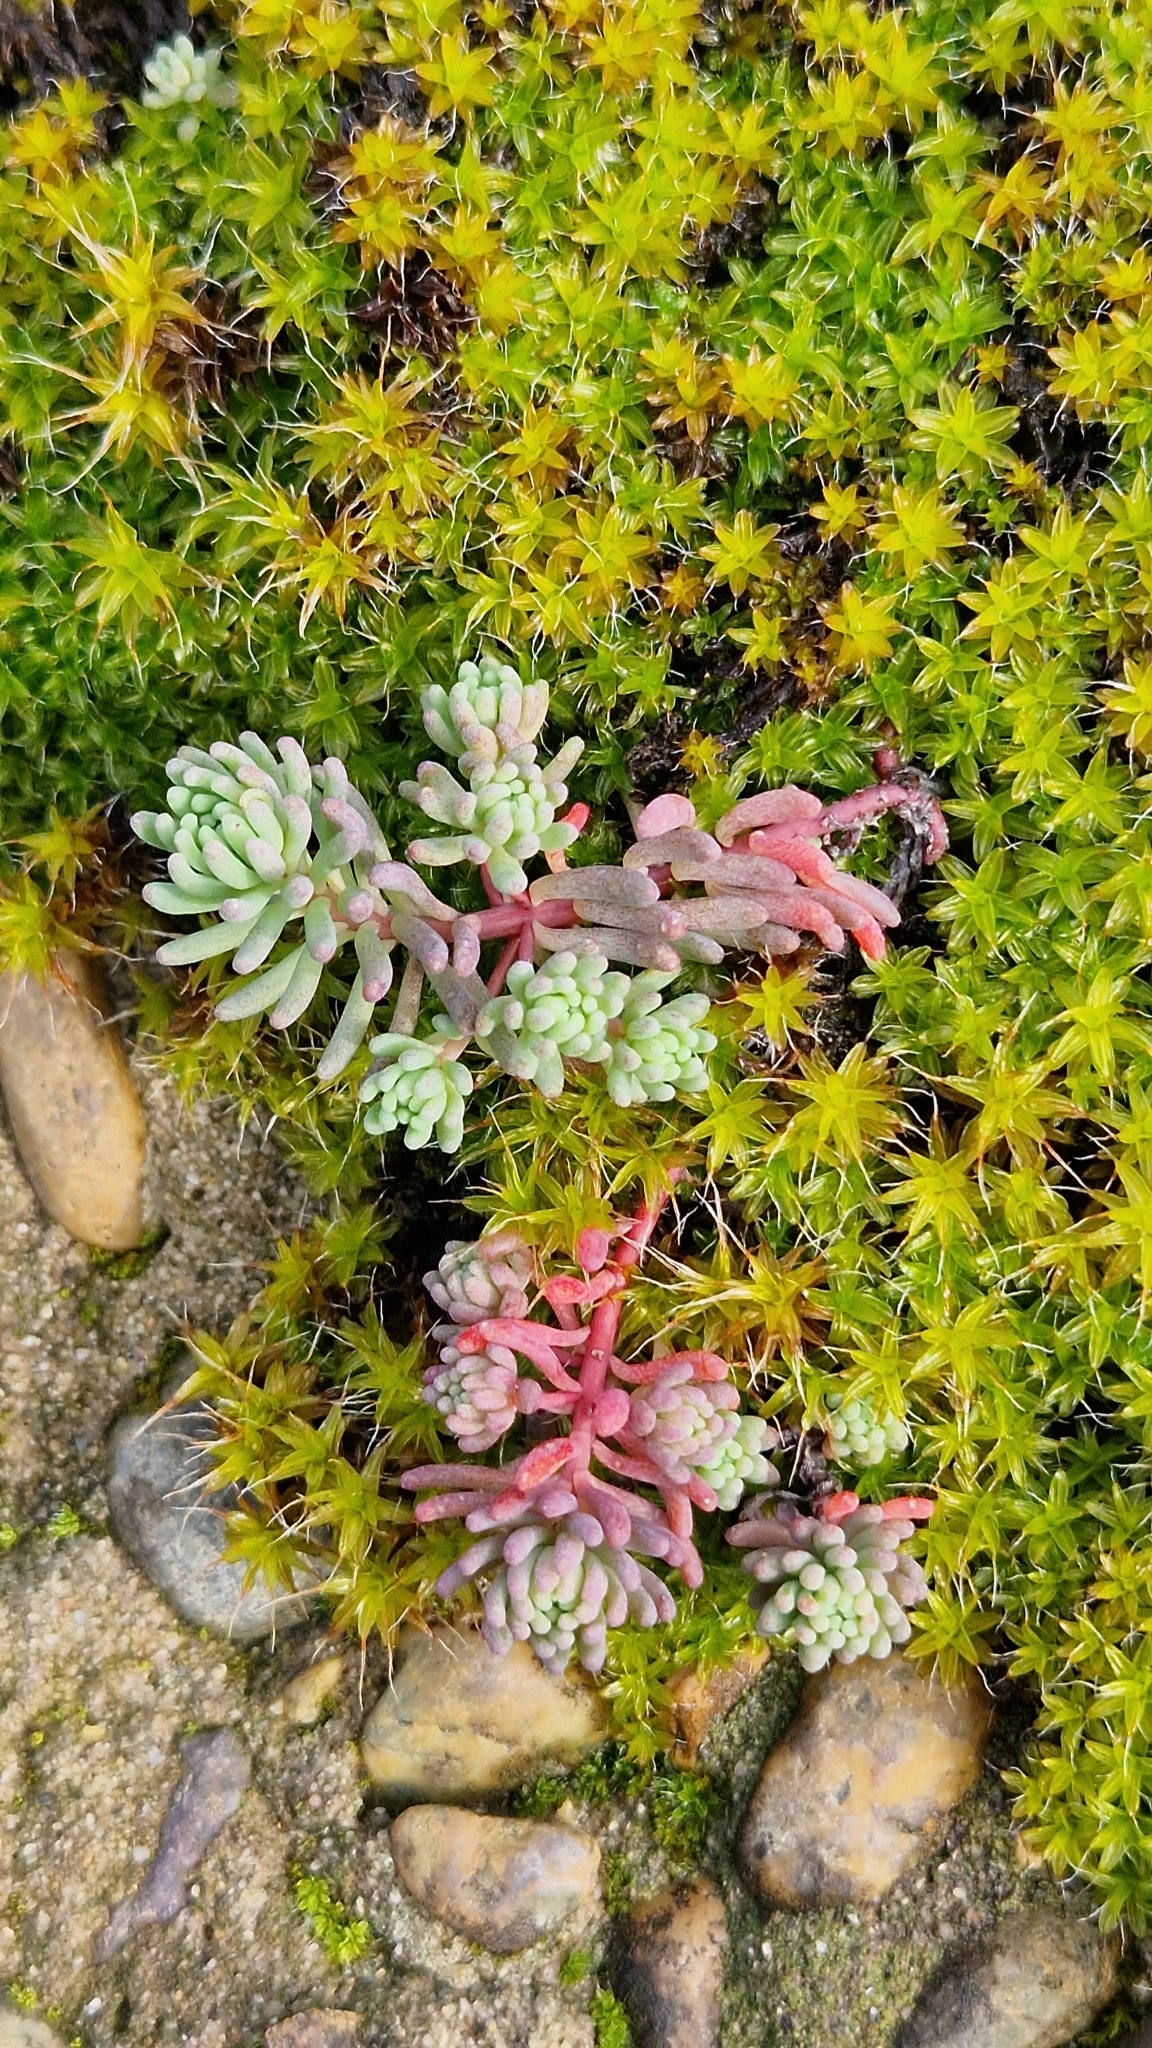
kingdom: Plantae
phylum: Tracheophyta
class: Magnoliopsida
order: Saxifragales
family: Crassulaceae
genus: Sedum
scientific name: Sedum pallidum
